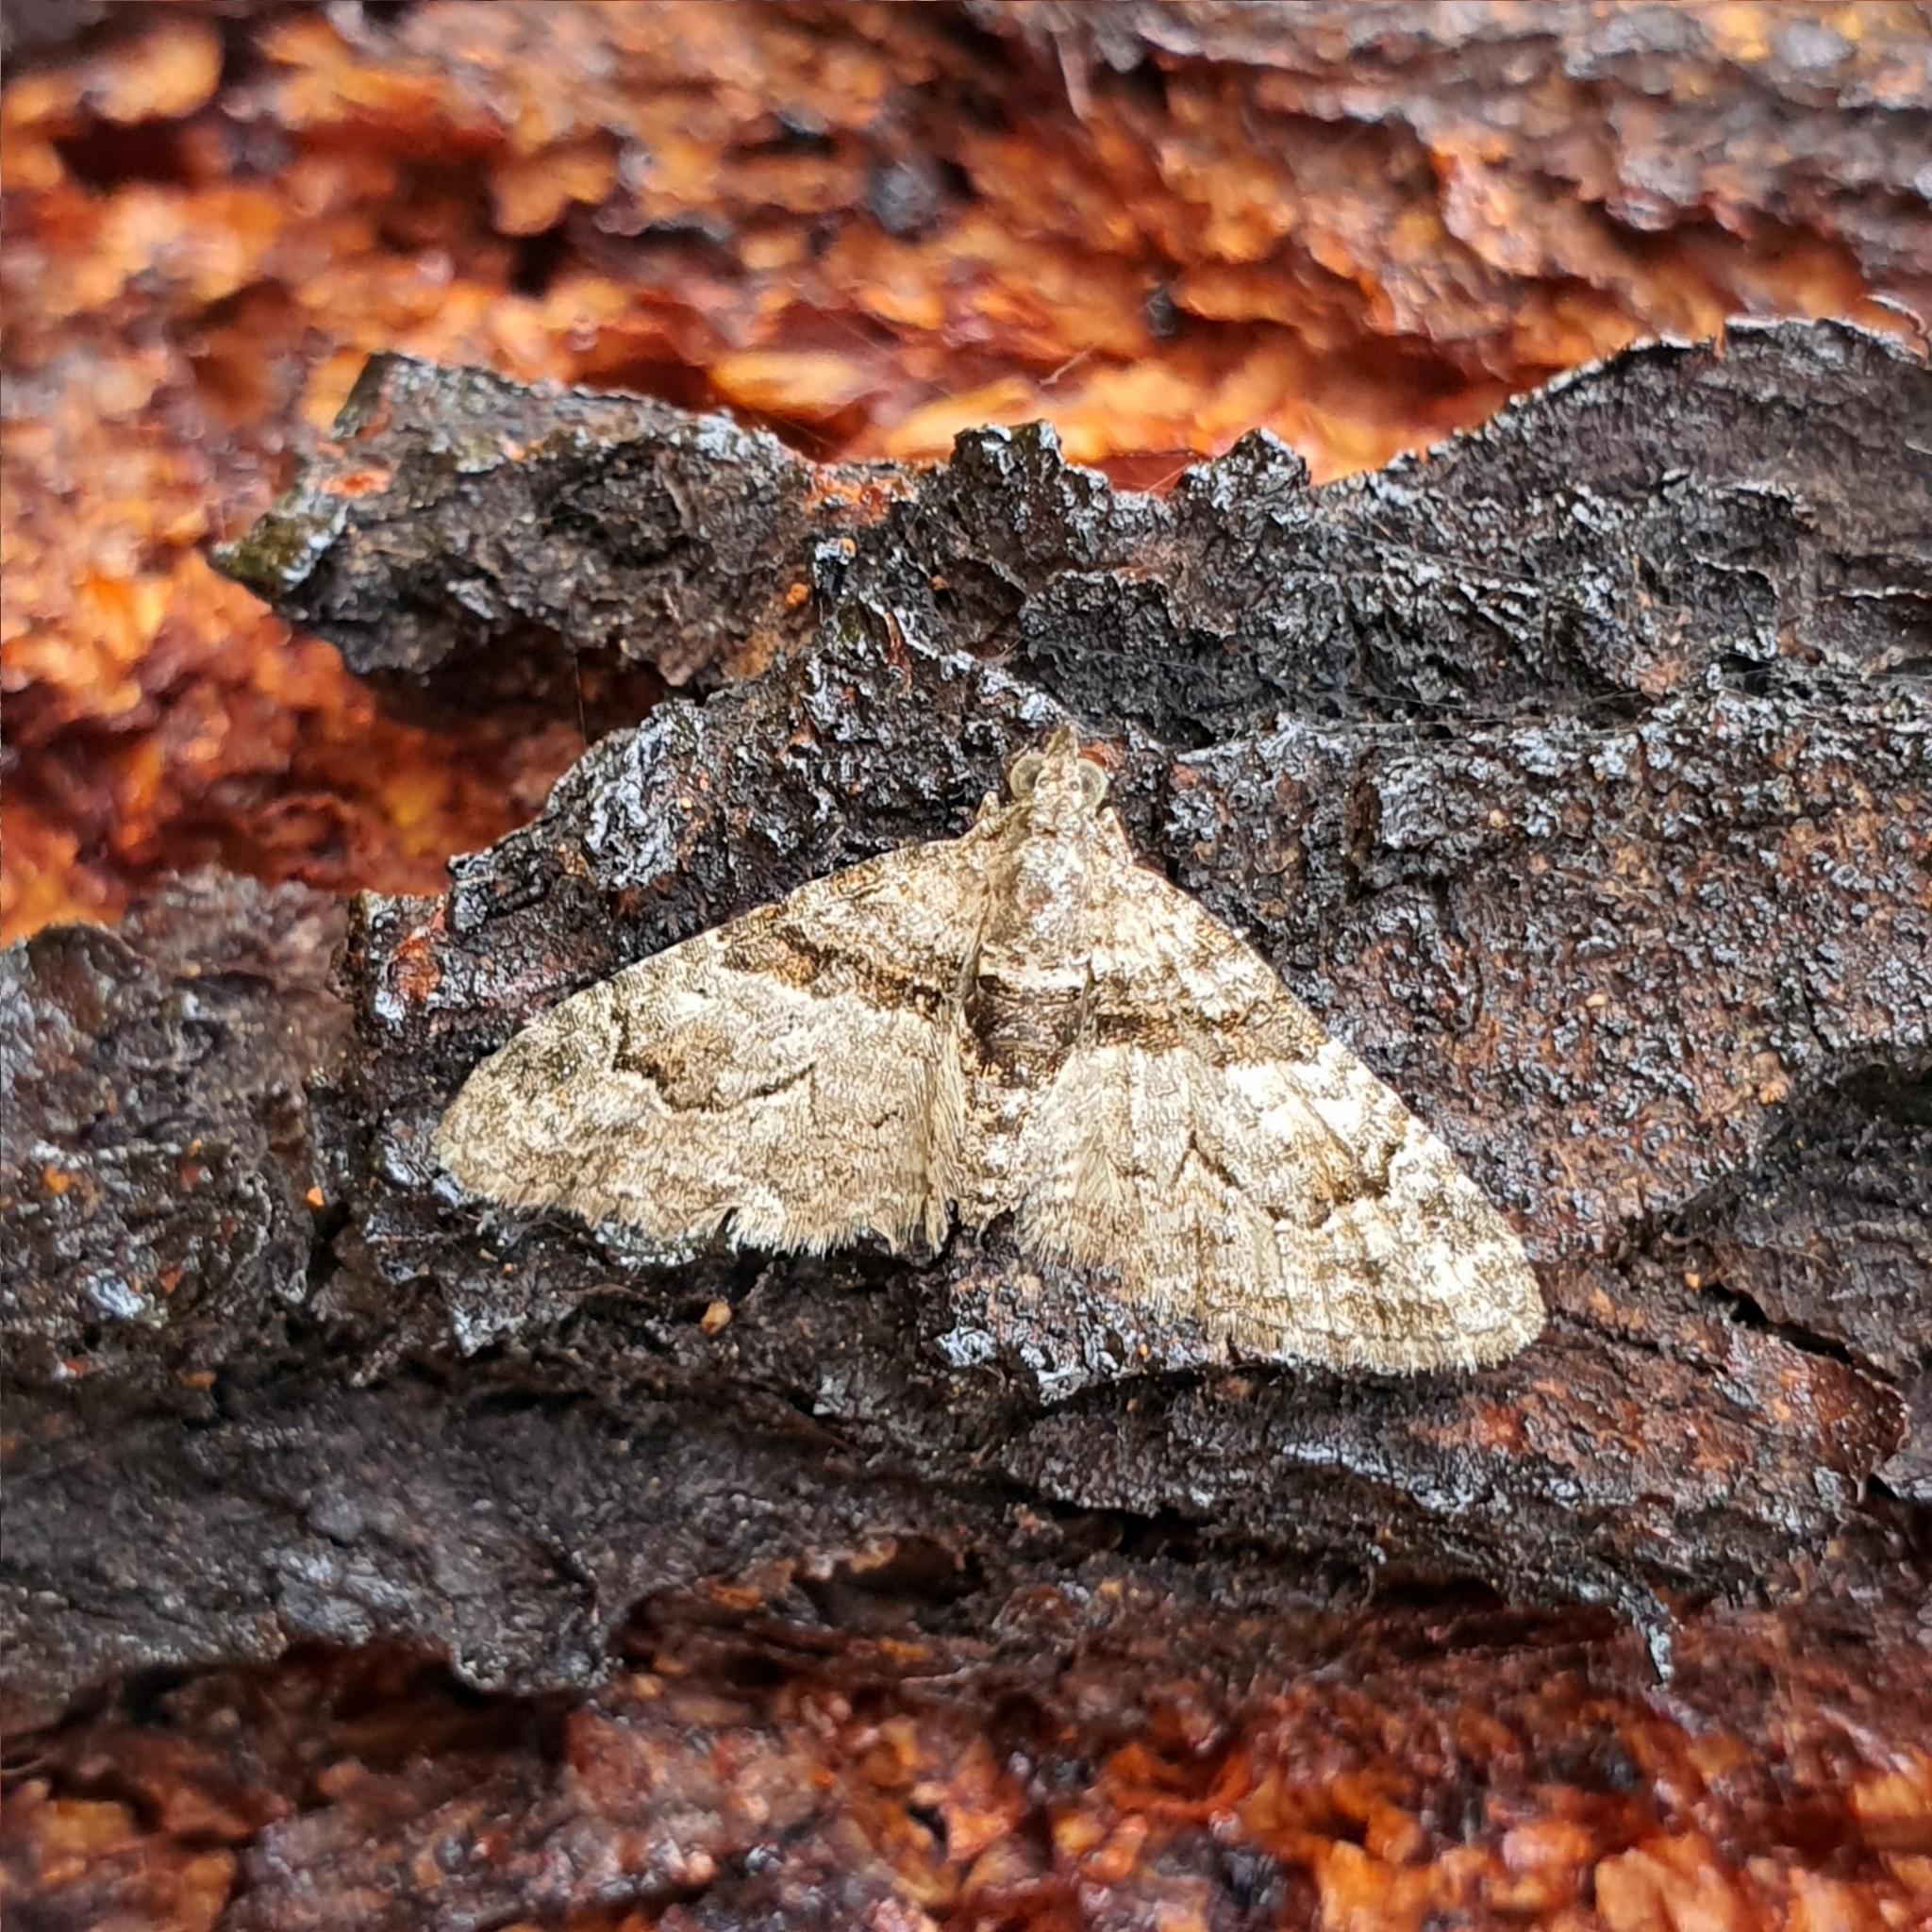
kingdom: Animalia
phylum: Arthropoda
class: Insecta
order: Lepidoptera
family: Geometridae
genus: Phrissogonus
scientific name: Phrissogonus laticostata
